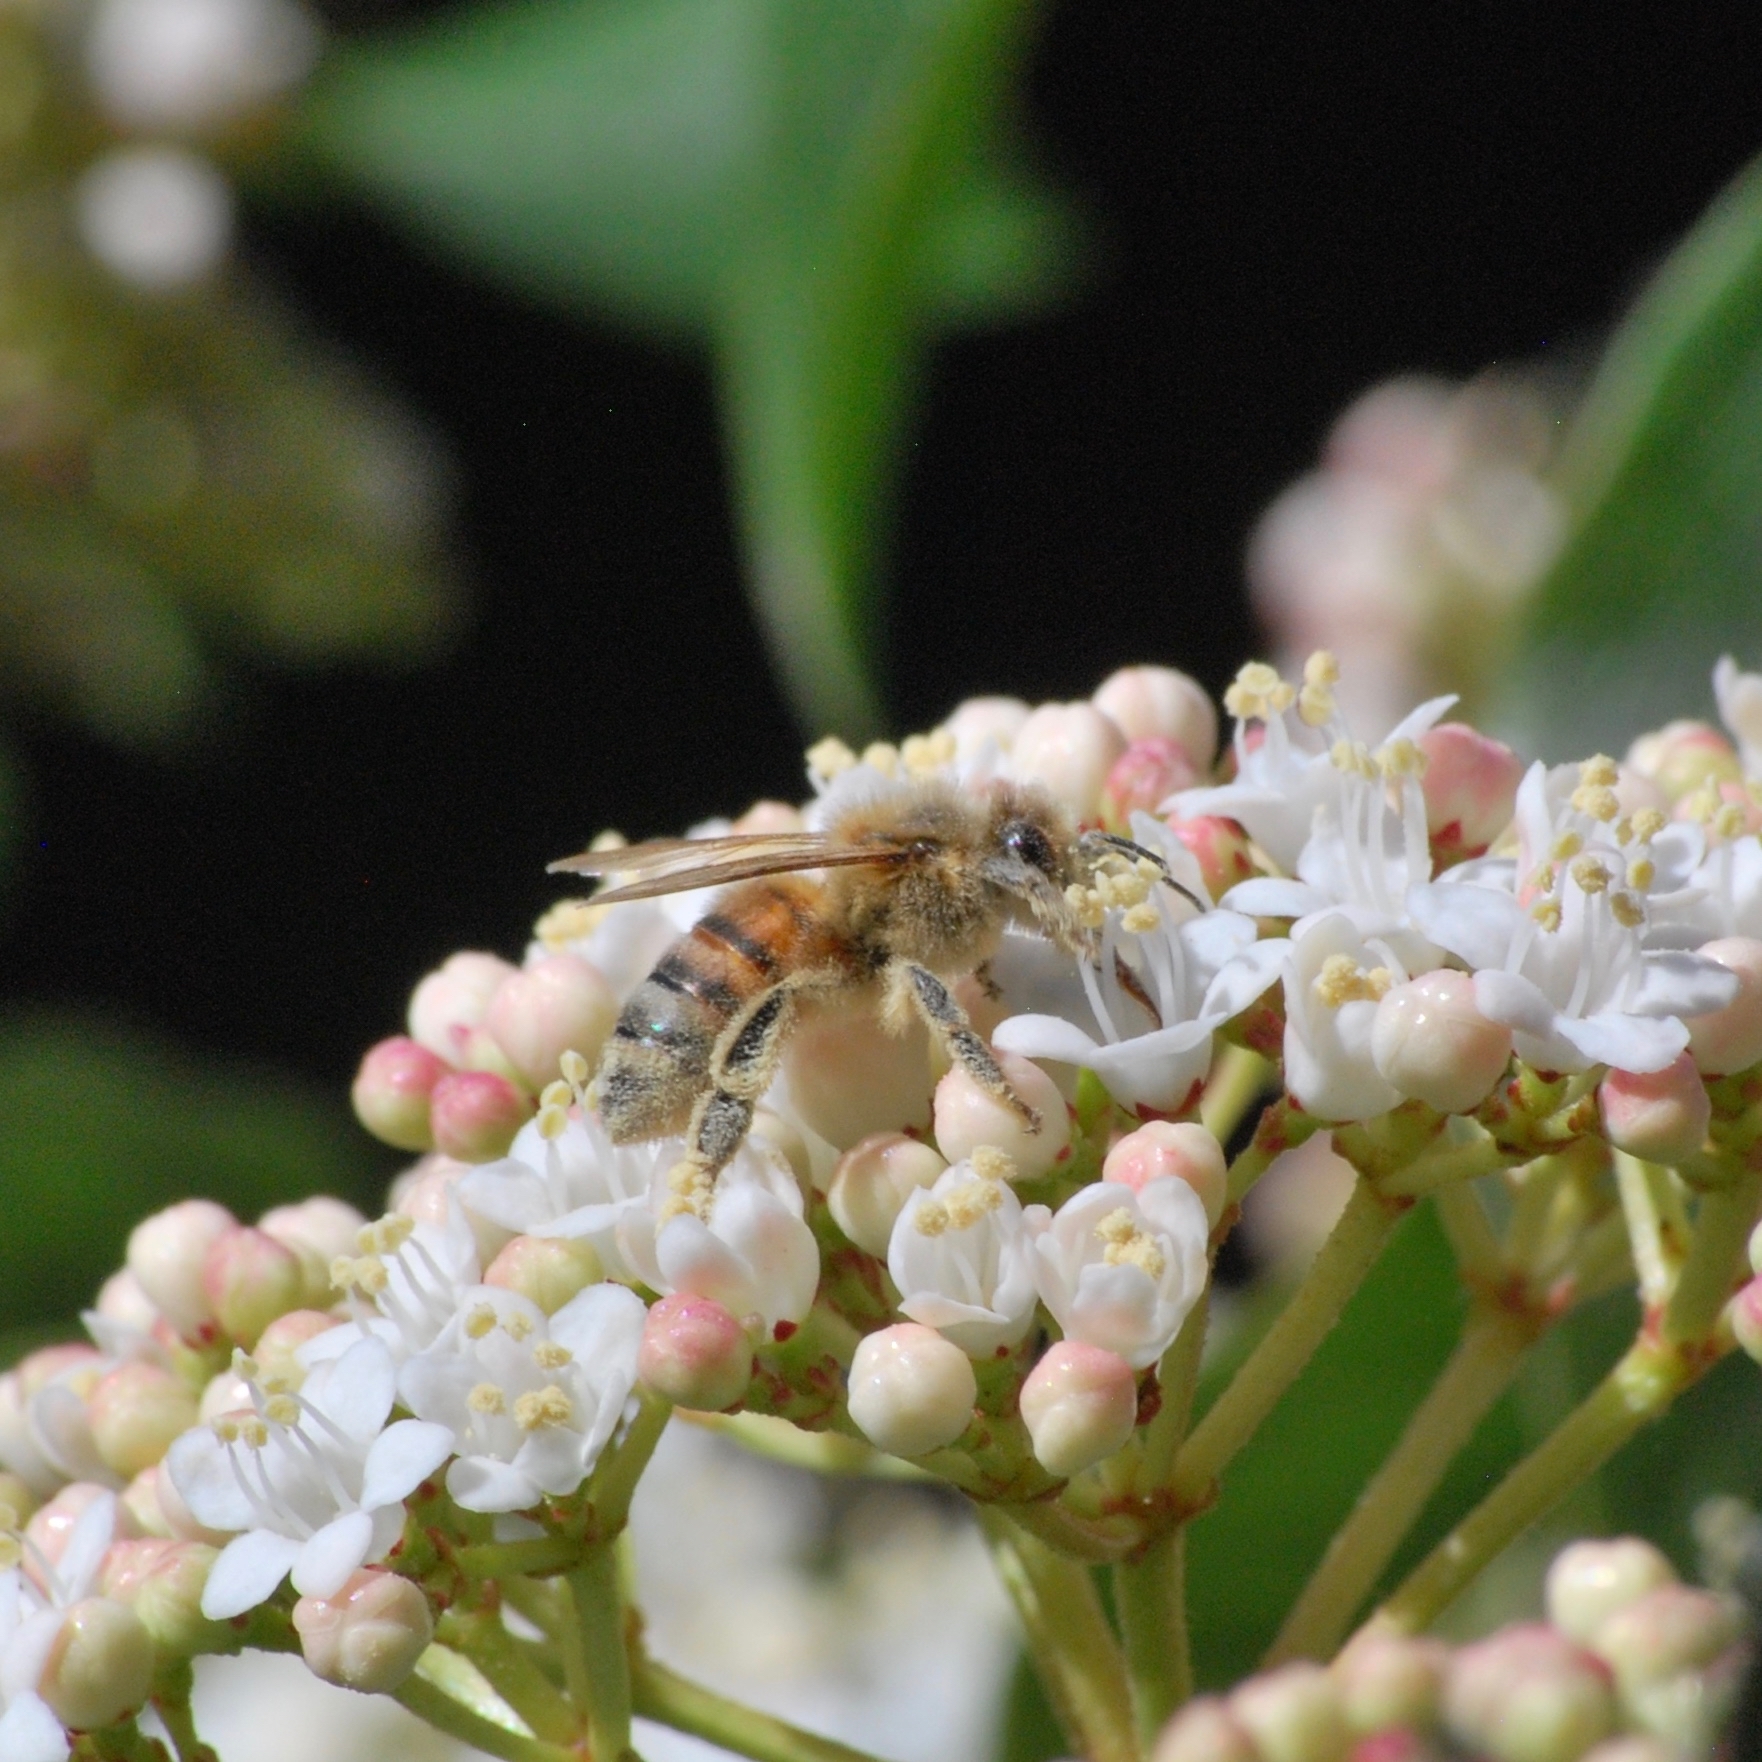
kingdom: Animalia
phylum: Arthropoda
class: Insecta
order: Hymenoptera
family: Apidae
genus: Apis
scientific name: Apis mellifera
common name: Honey bee
